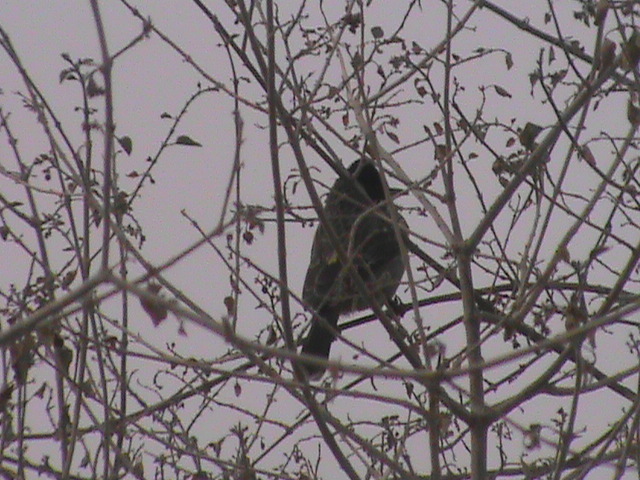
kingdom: Animalia
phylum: Chordata
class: Aves
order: Passeriformes
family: Pycnonotidae
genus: Pycnonotus
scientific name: Pycnonotus cafer
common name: Red-vented bulbul
